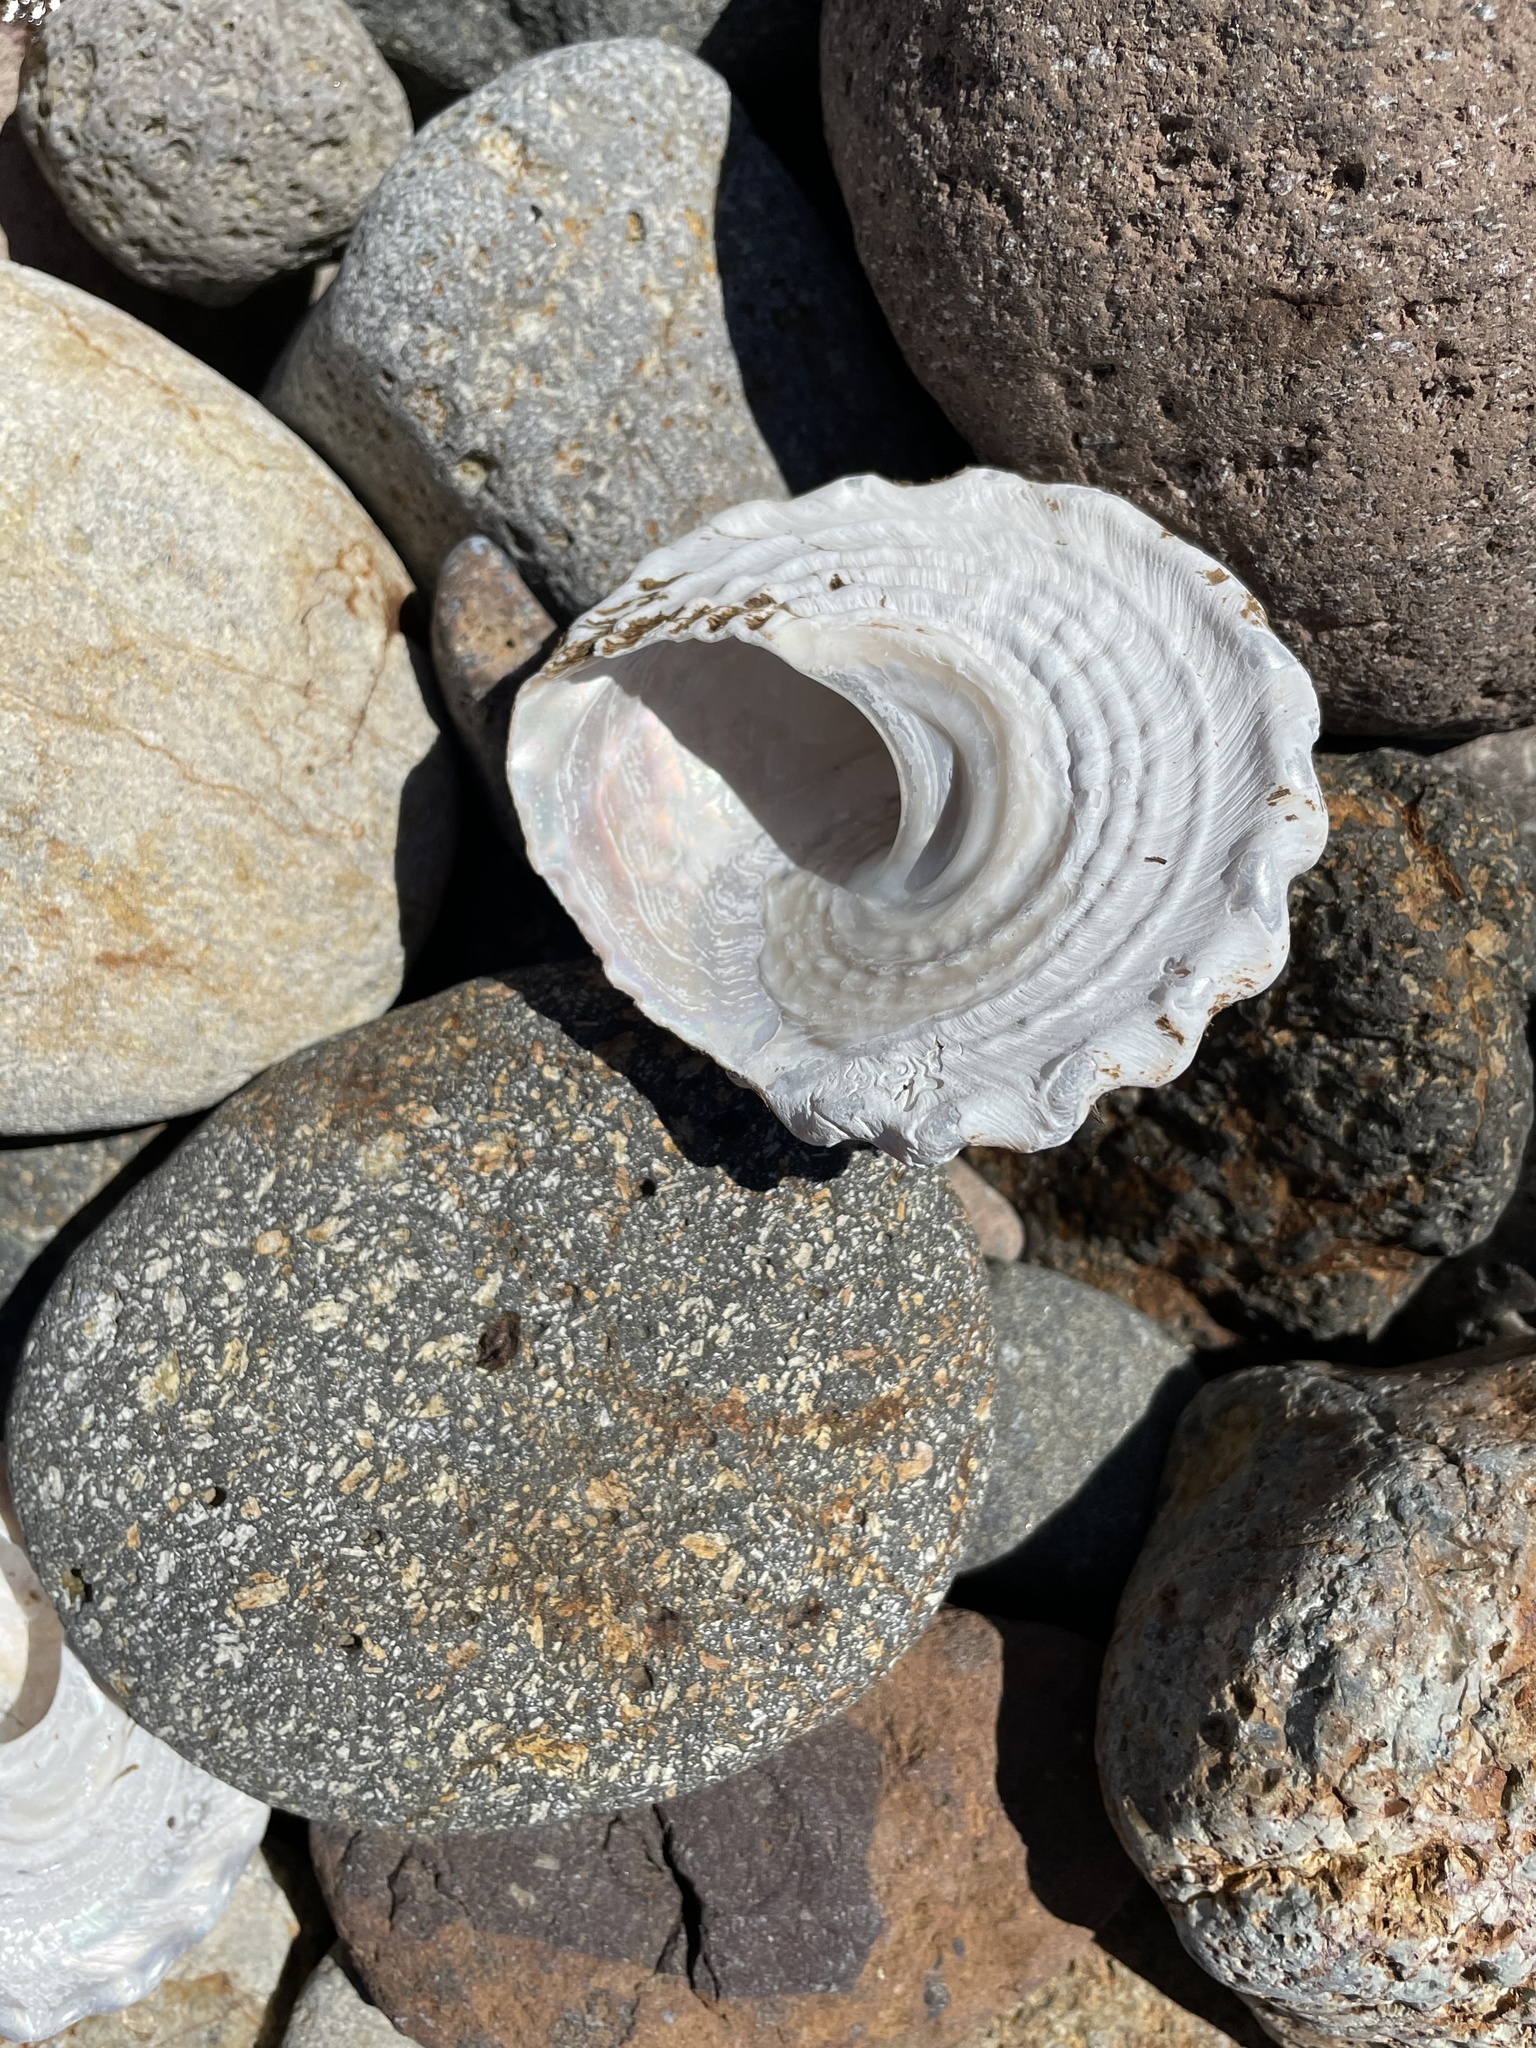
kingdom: Animalia
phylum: Mollusca
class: Gastropoda
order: Trochida
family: Turbinidae
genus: Megastraea
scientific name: Megastraea undosa
